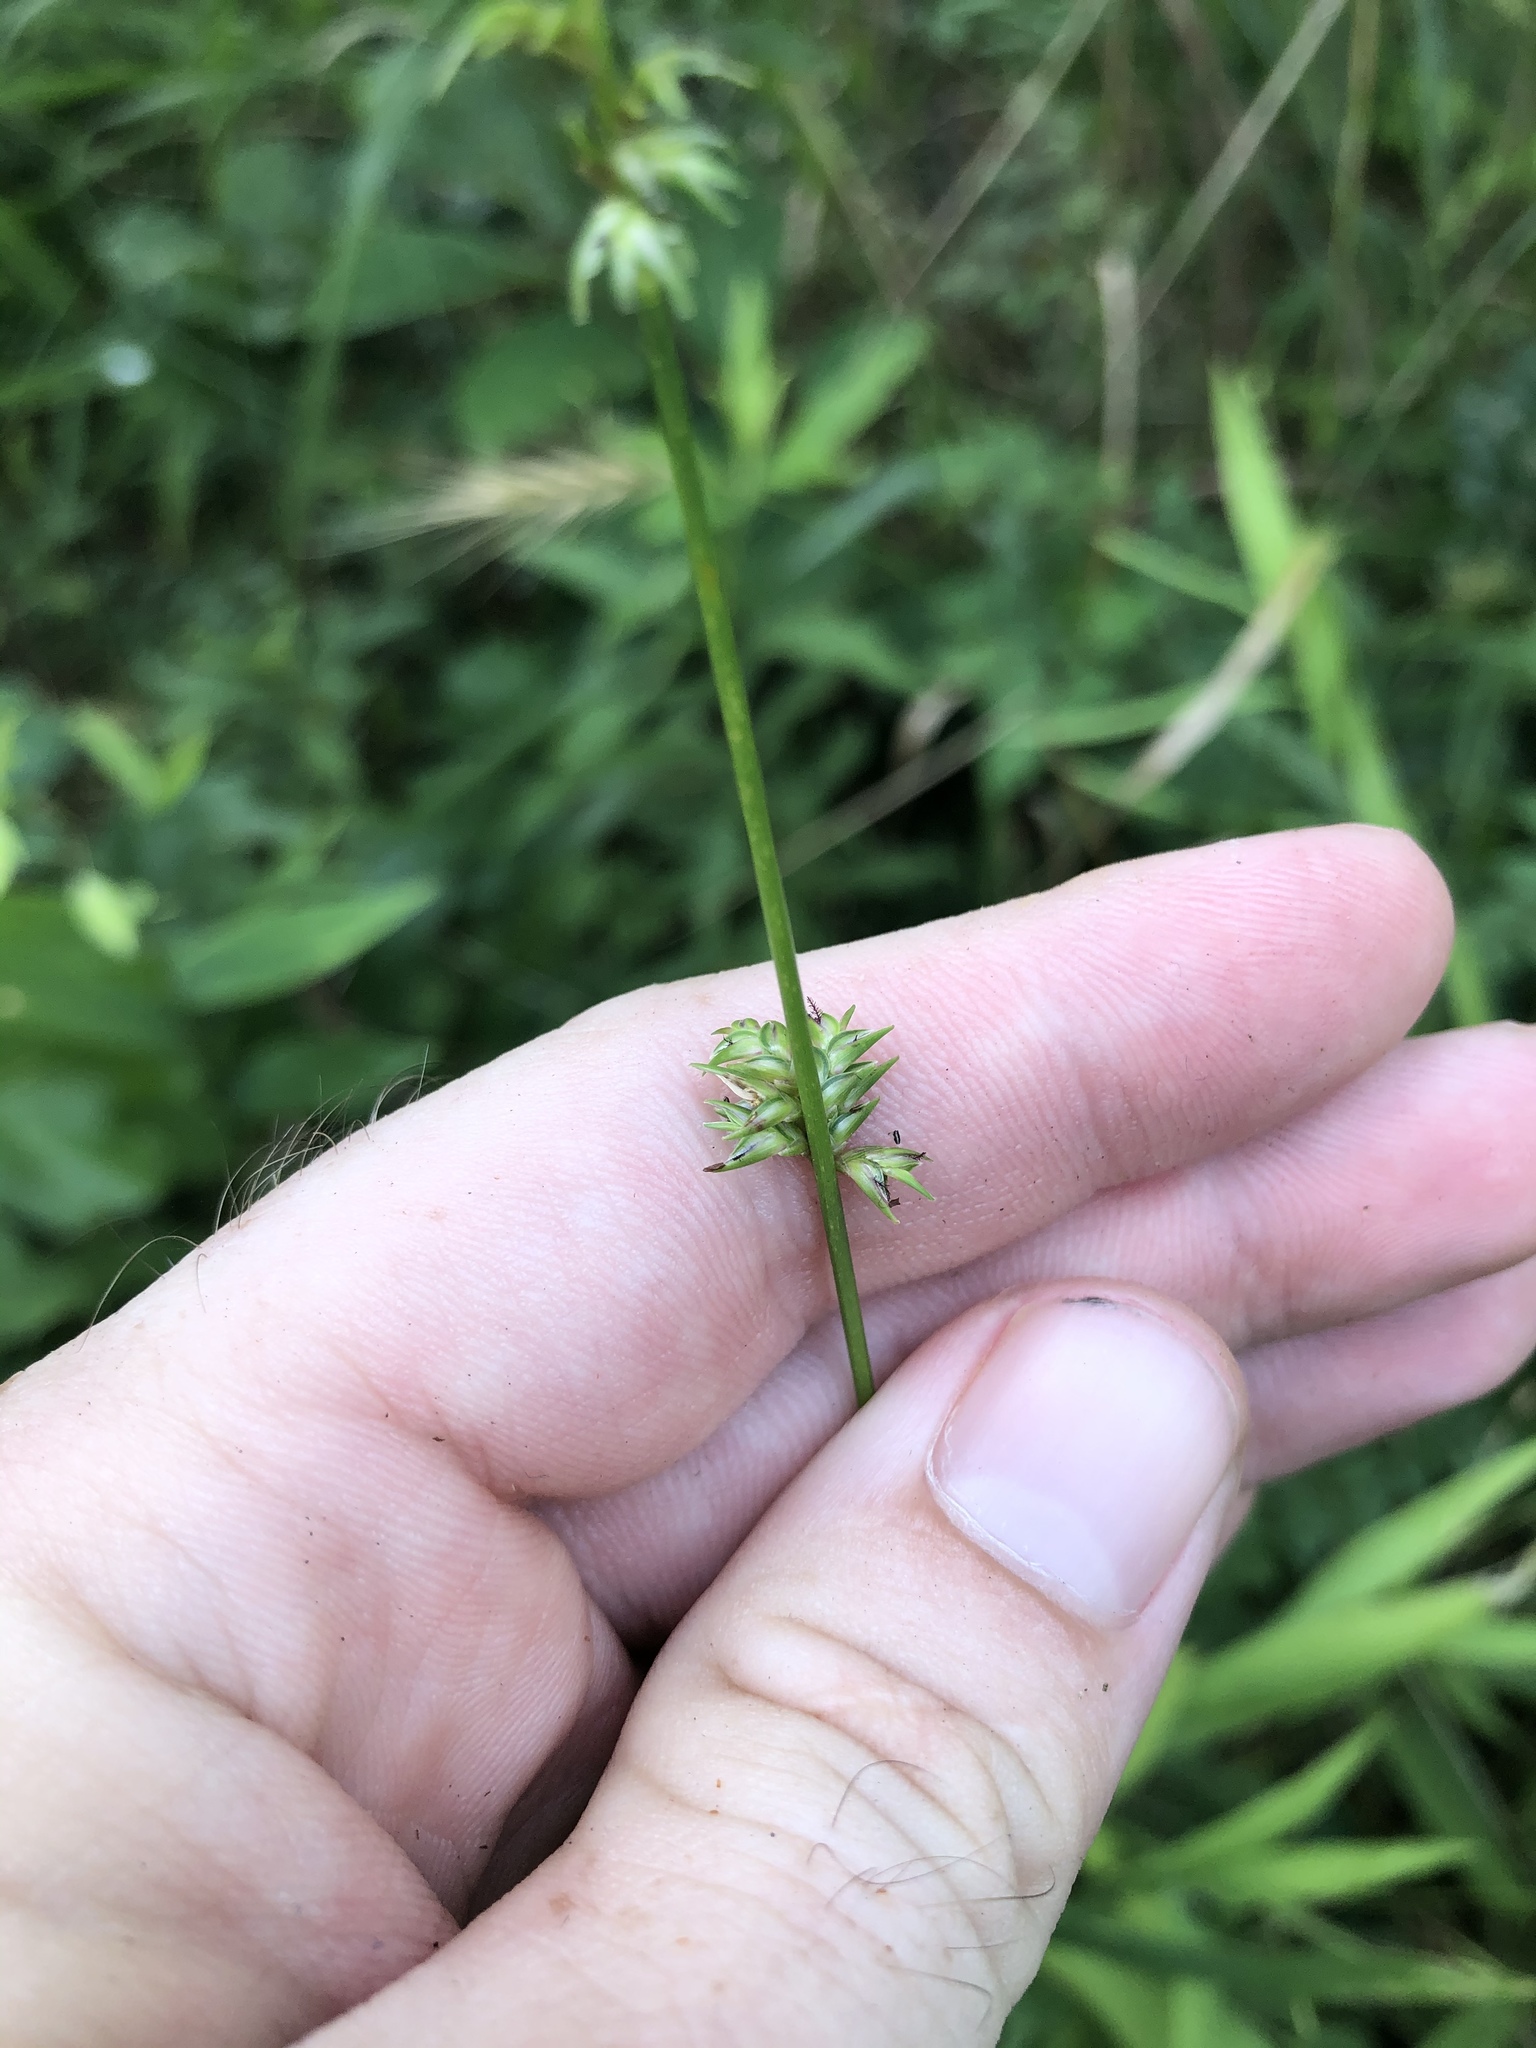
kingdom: Plantae
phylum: Tracheophyta
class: Liliopsida
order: Poales
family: Poaceae
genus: Chasmanthium
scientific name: Chasmanthium laxum
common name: Slender chasmanthium
